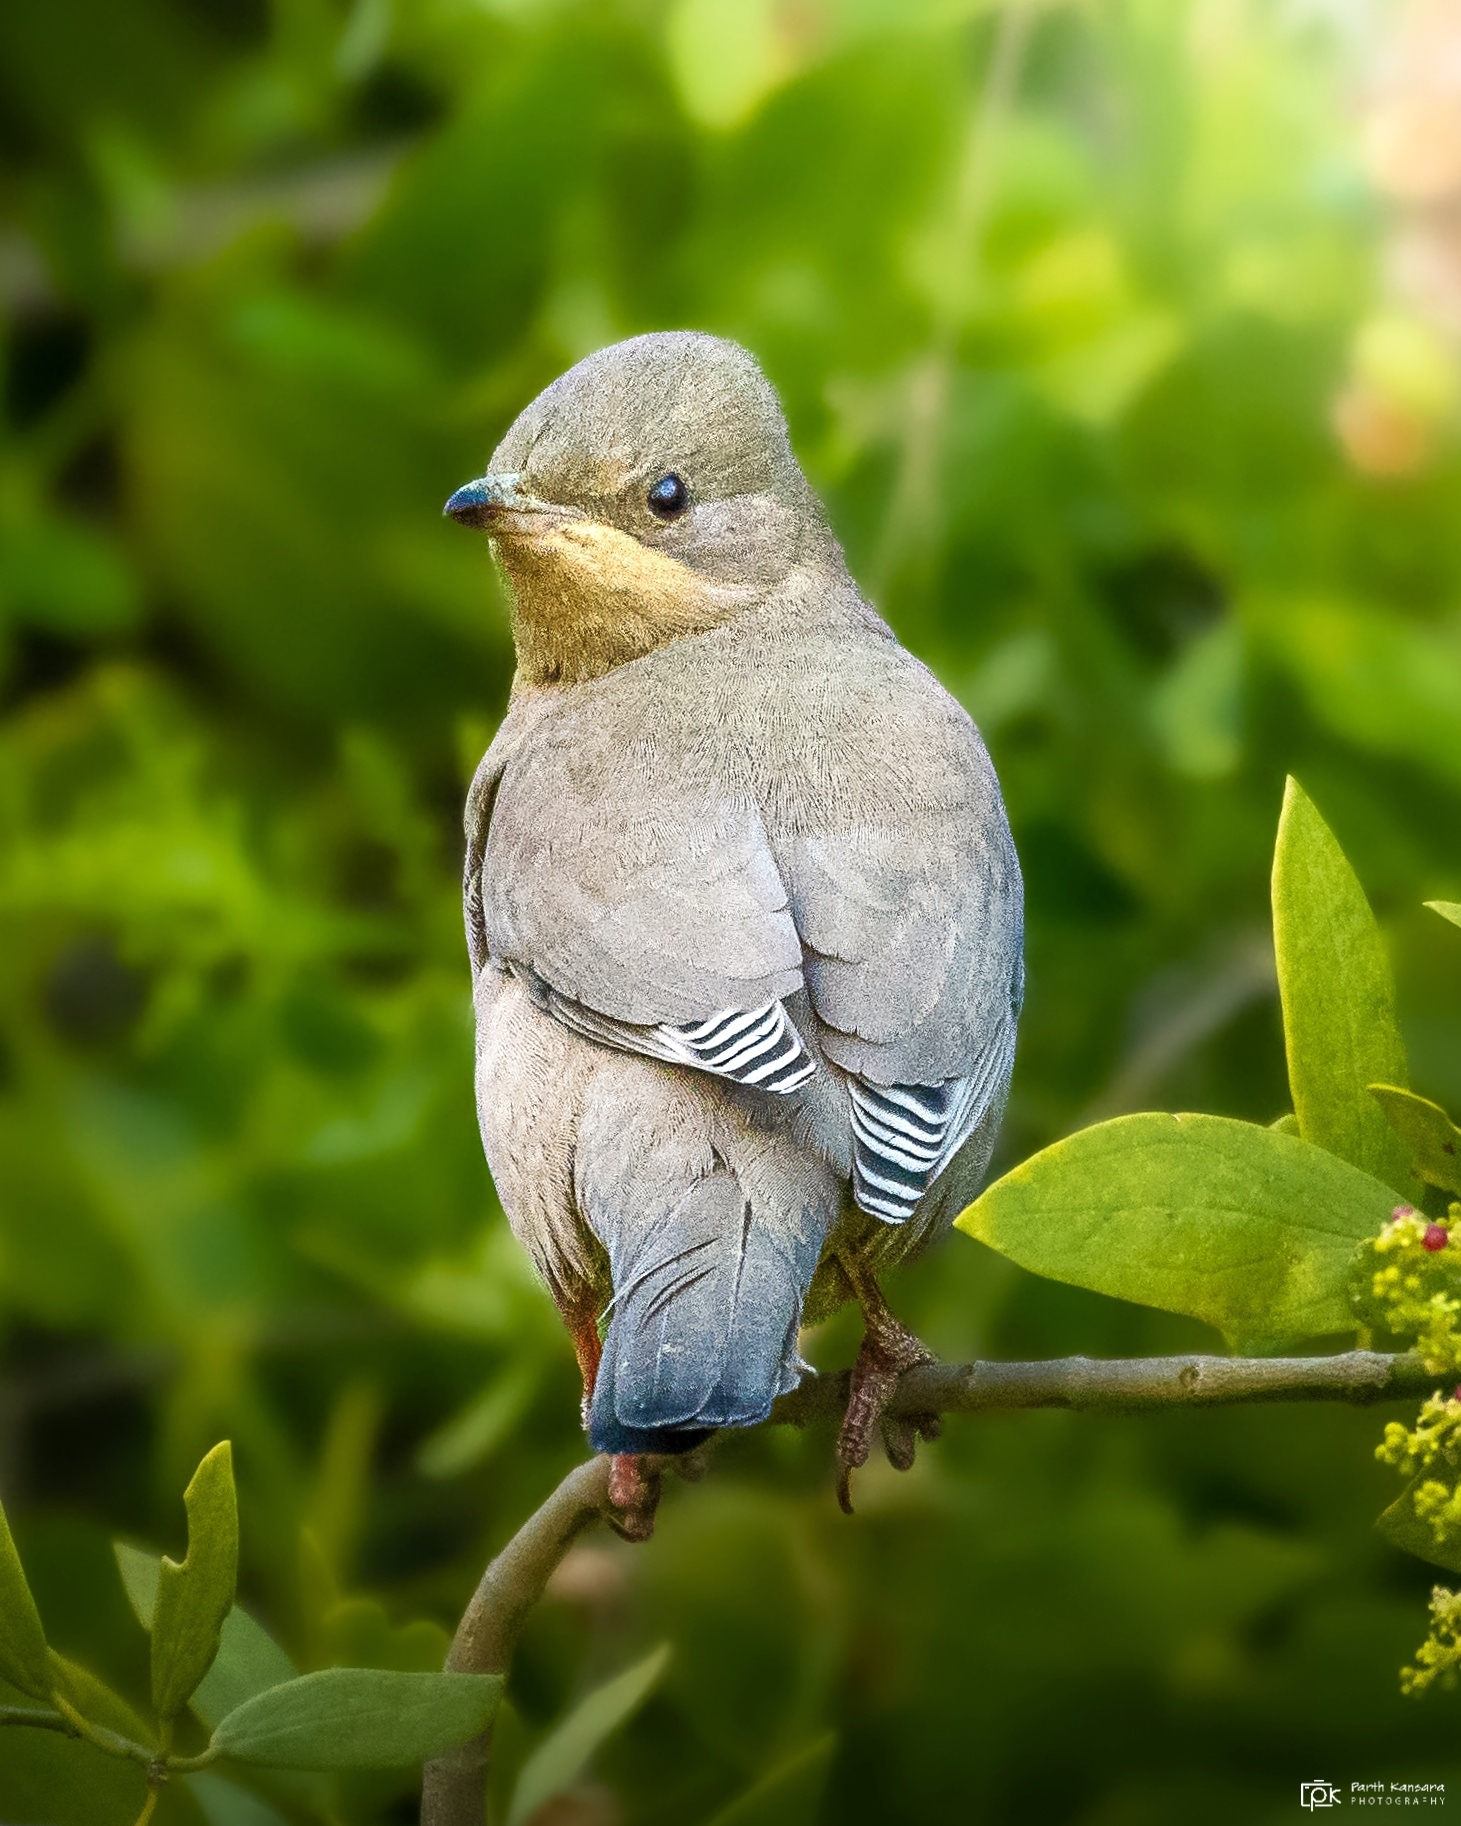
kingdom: Animalia
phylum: Chordata
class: Aves
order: Passeriformes
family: Hypocoliidae
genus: Hypocolius
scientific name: Hypocolius ampelinus
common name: Hypocolius
